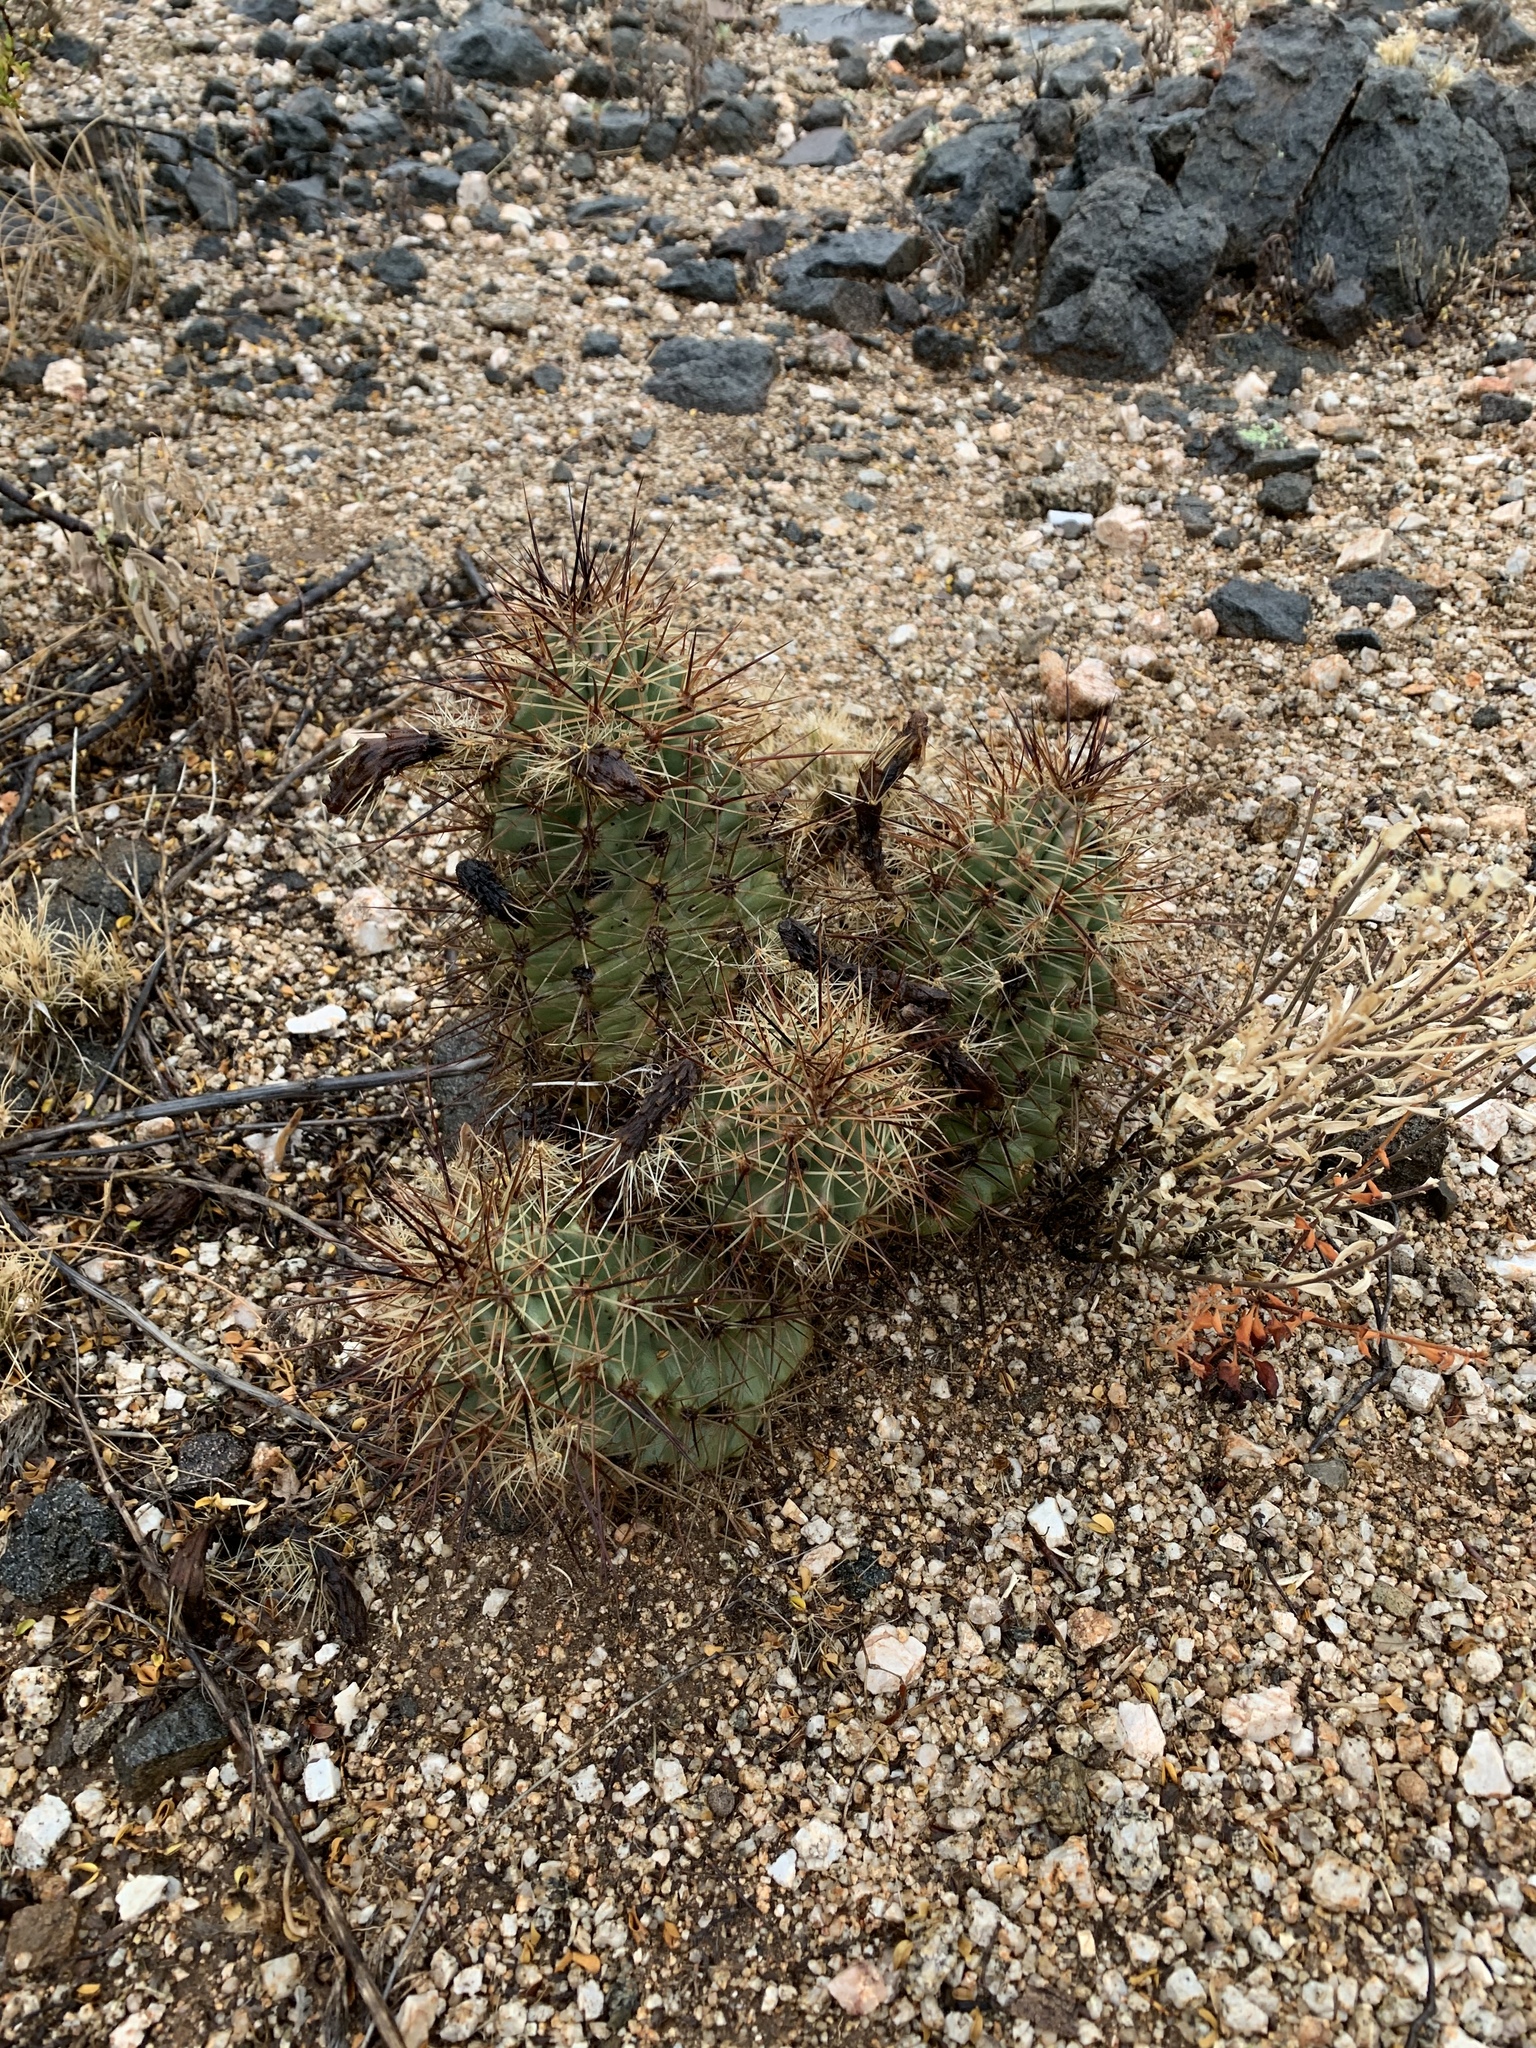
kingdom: Plantae
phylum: Tracheophyta
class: Magnoliopsida
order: Caryophyllales
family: Cactaceae
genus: Echinocereus
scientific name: Echinocereus coccineus
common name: Scarlet hedgehog cactus
